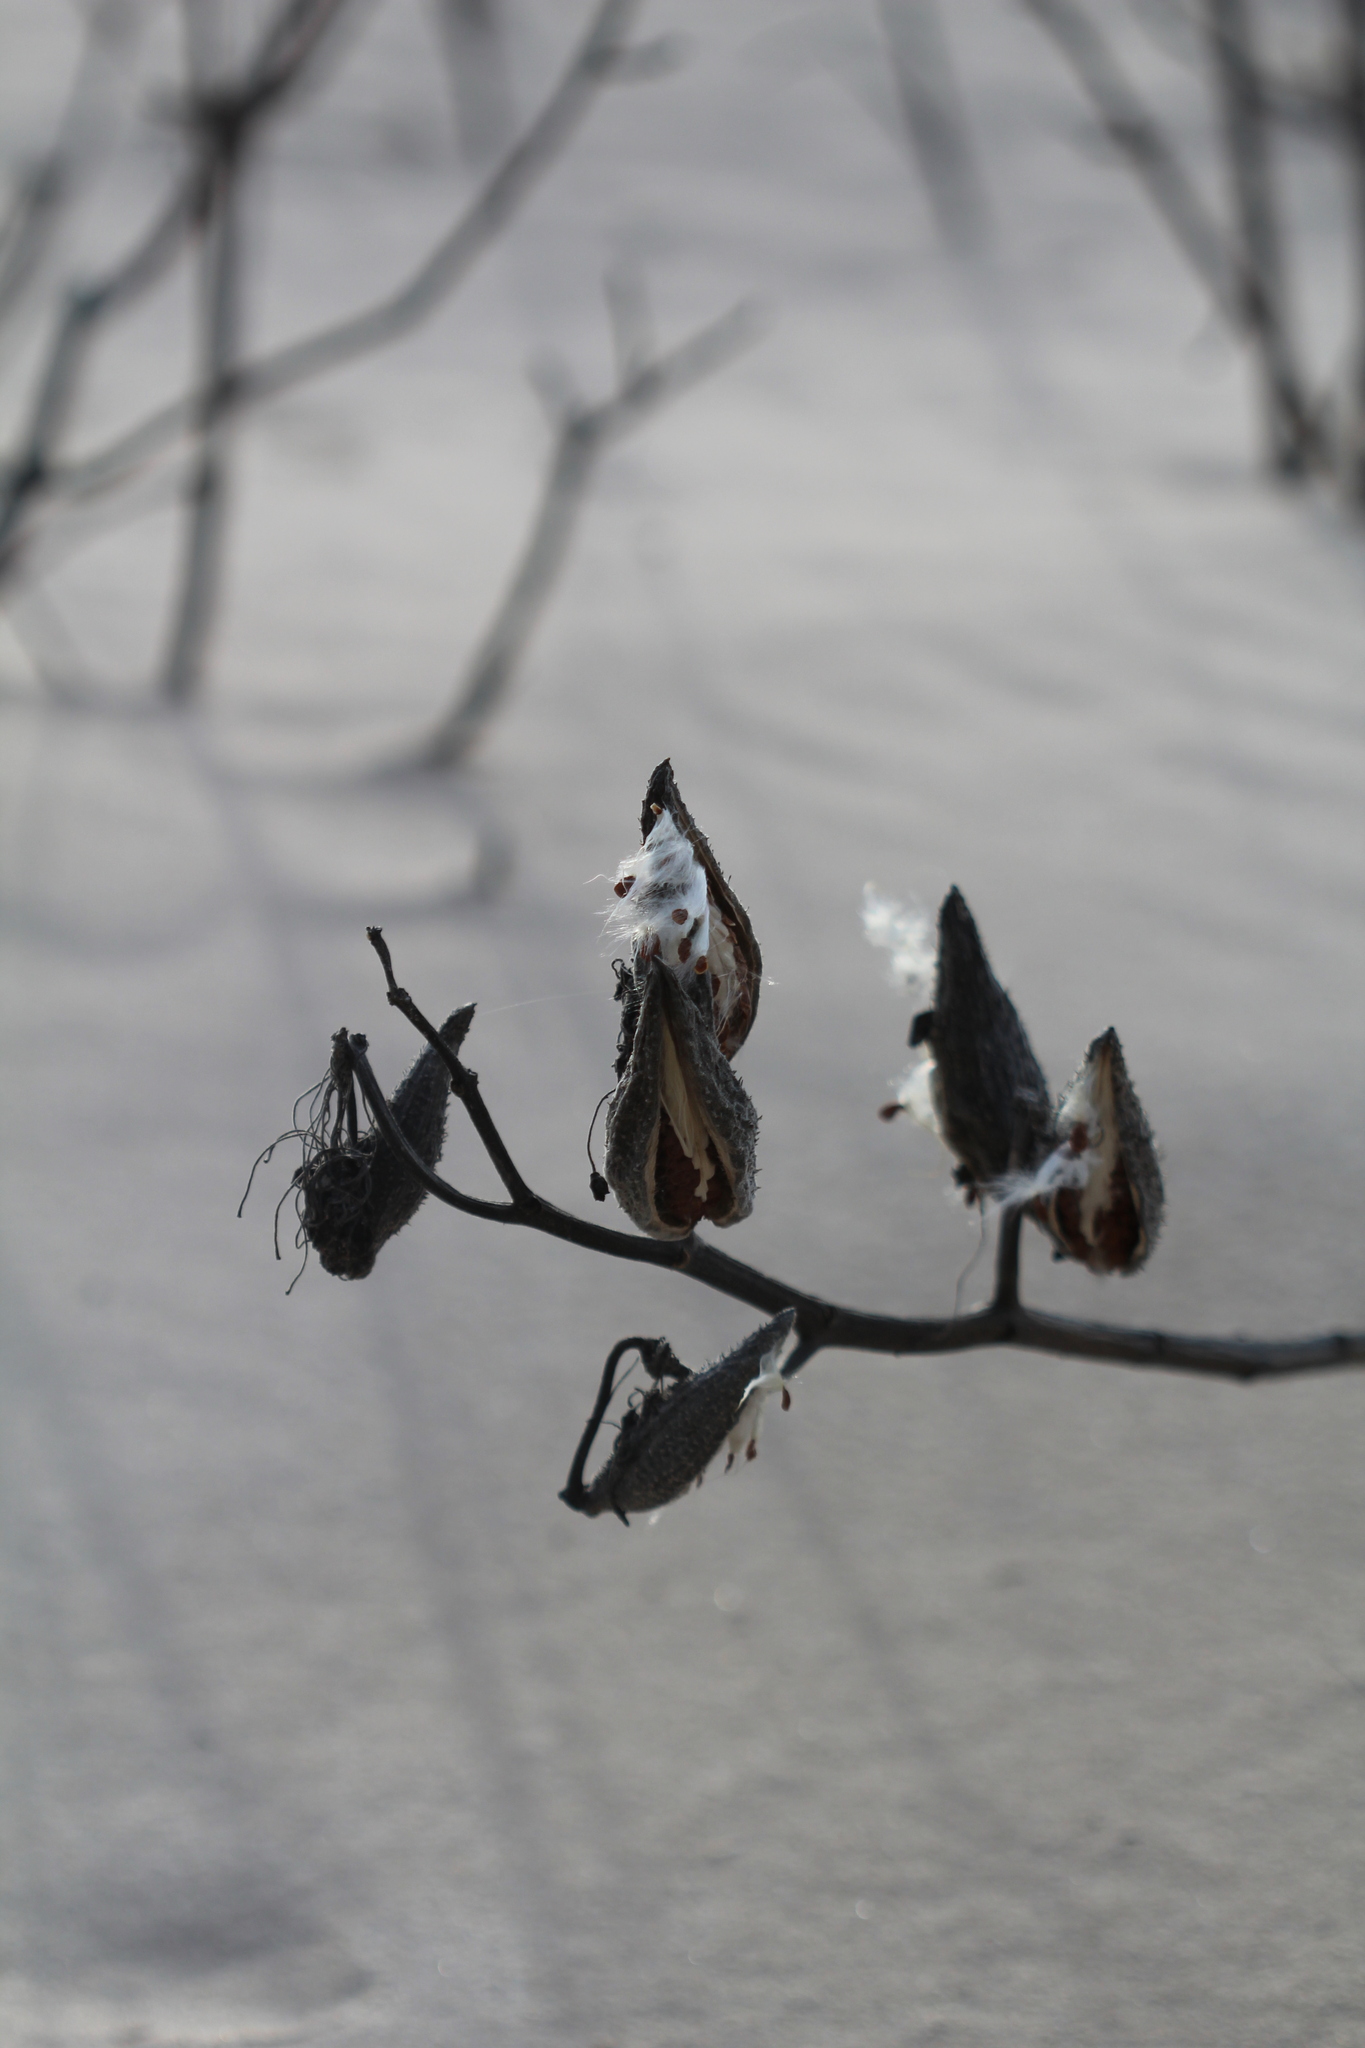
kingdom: Plantae
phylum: Tracheophyta
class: Magnoliopsida
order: Gentianales
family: Apocynaceae
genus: Asclepias
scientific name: Asclepias syriaca
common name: Common milkweed
